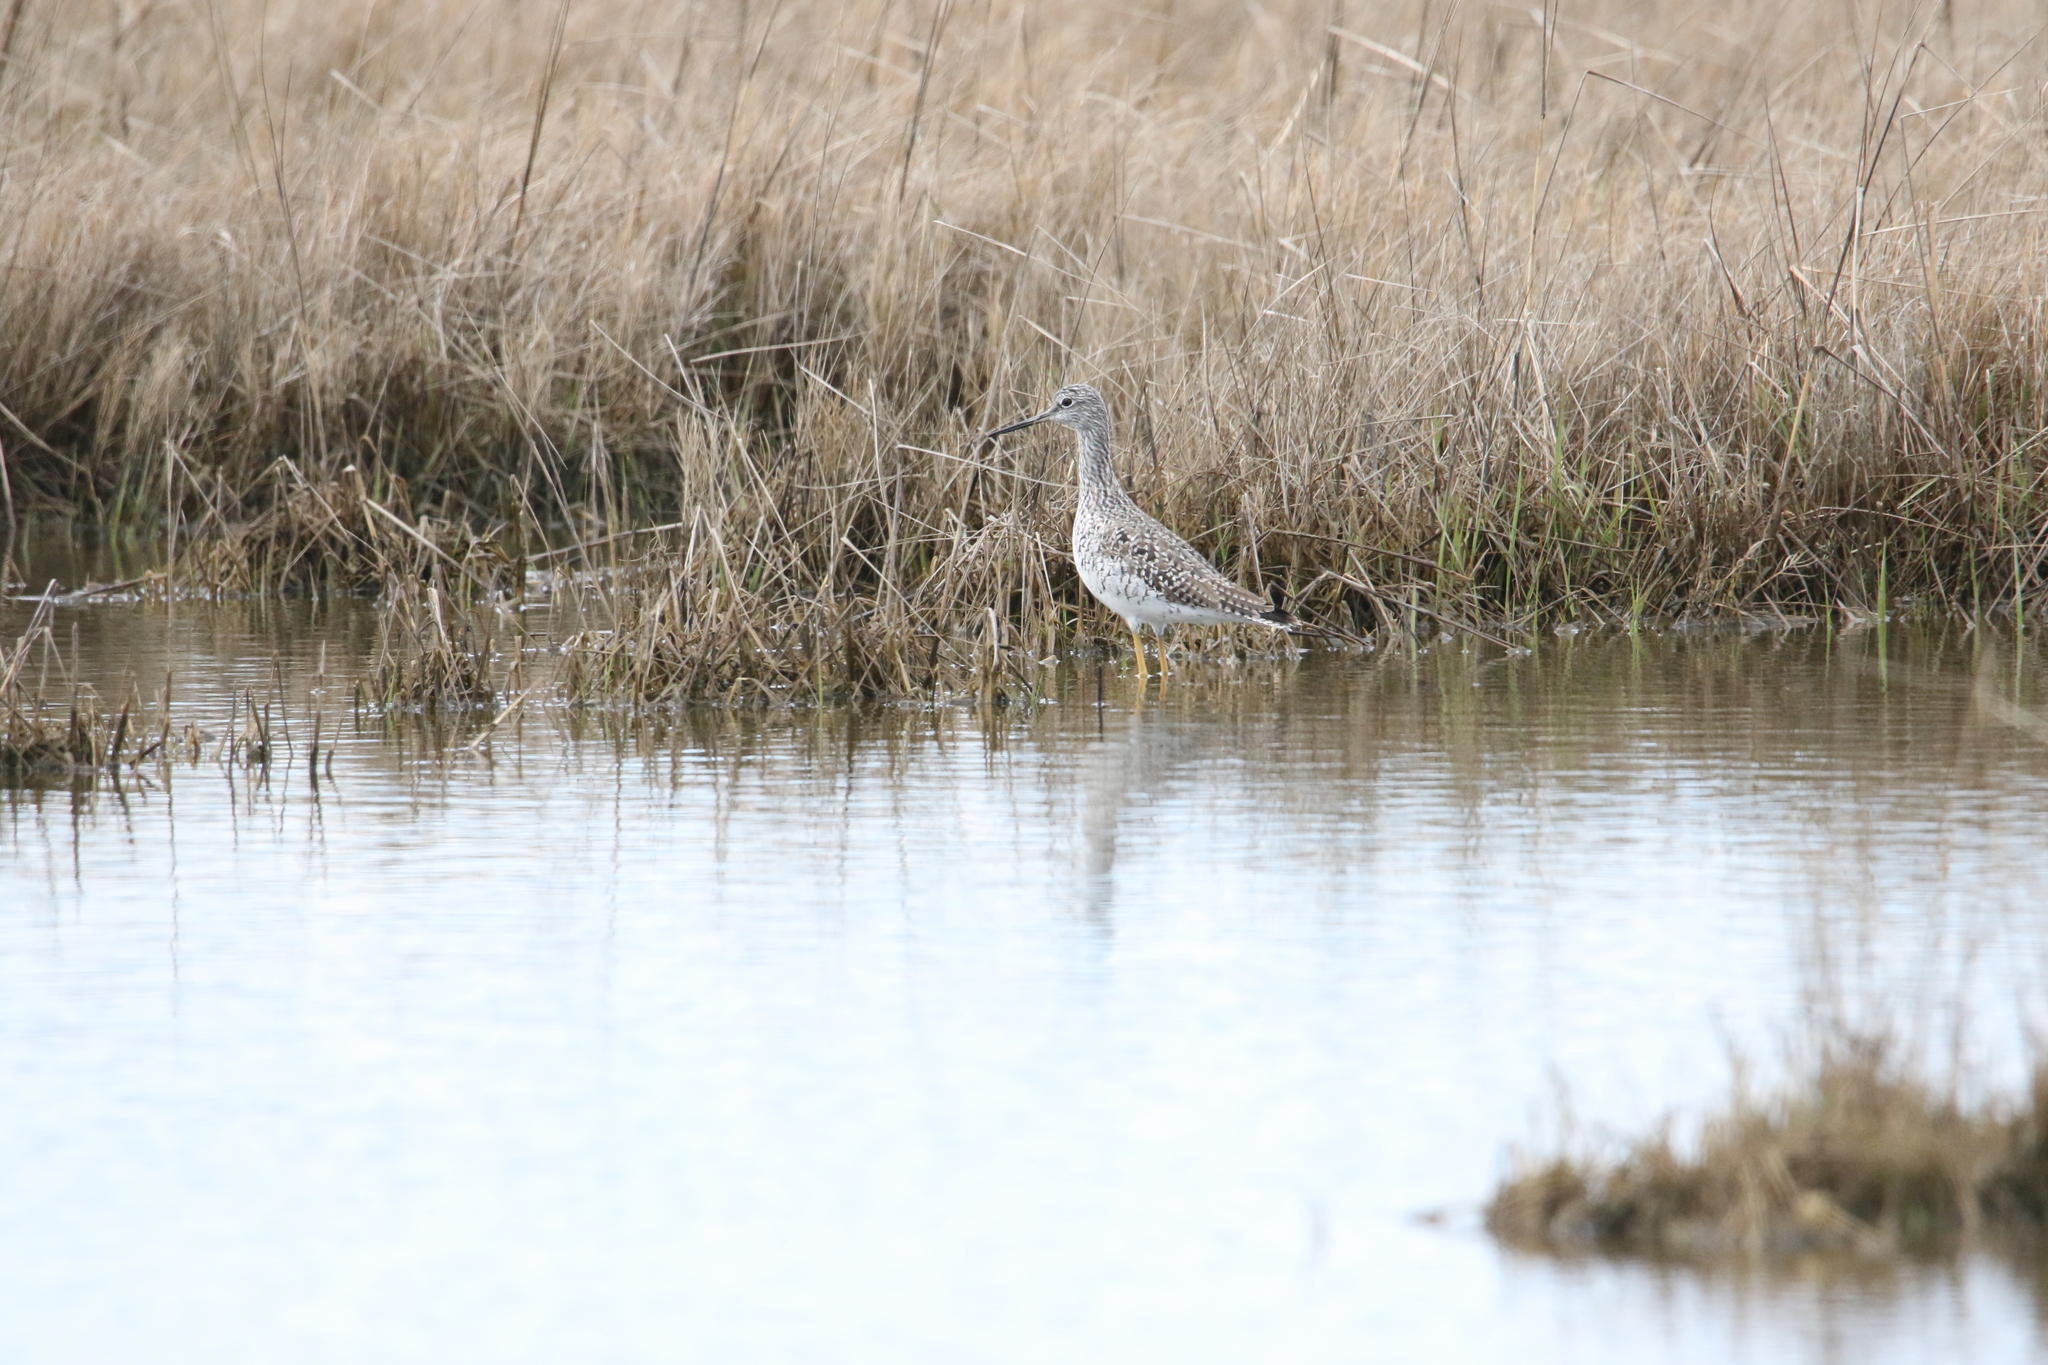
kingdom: Animalia
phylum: Chordata
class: Aves
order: Charadriiformes
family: Scolopacidae
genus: Tringa
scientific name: Tringa melanoleuca
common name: Greater yellowlegs
